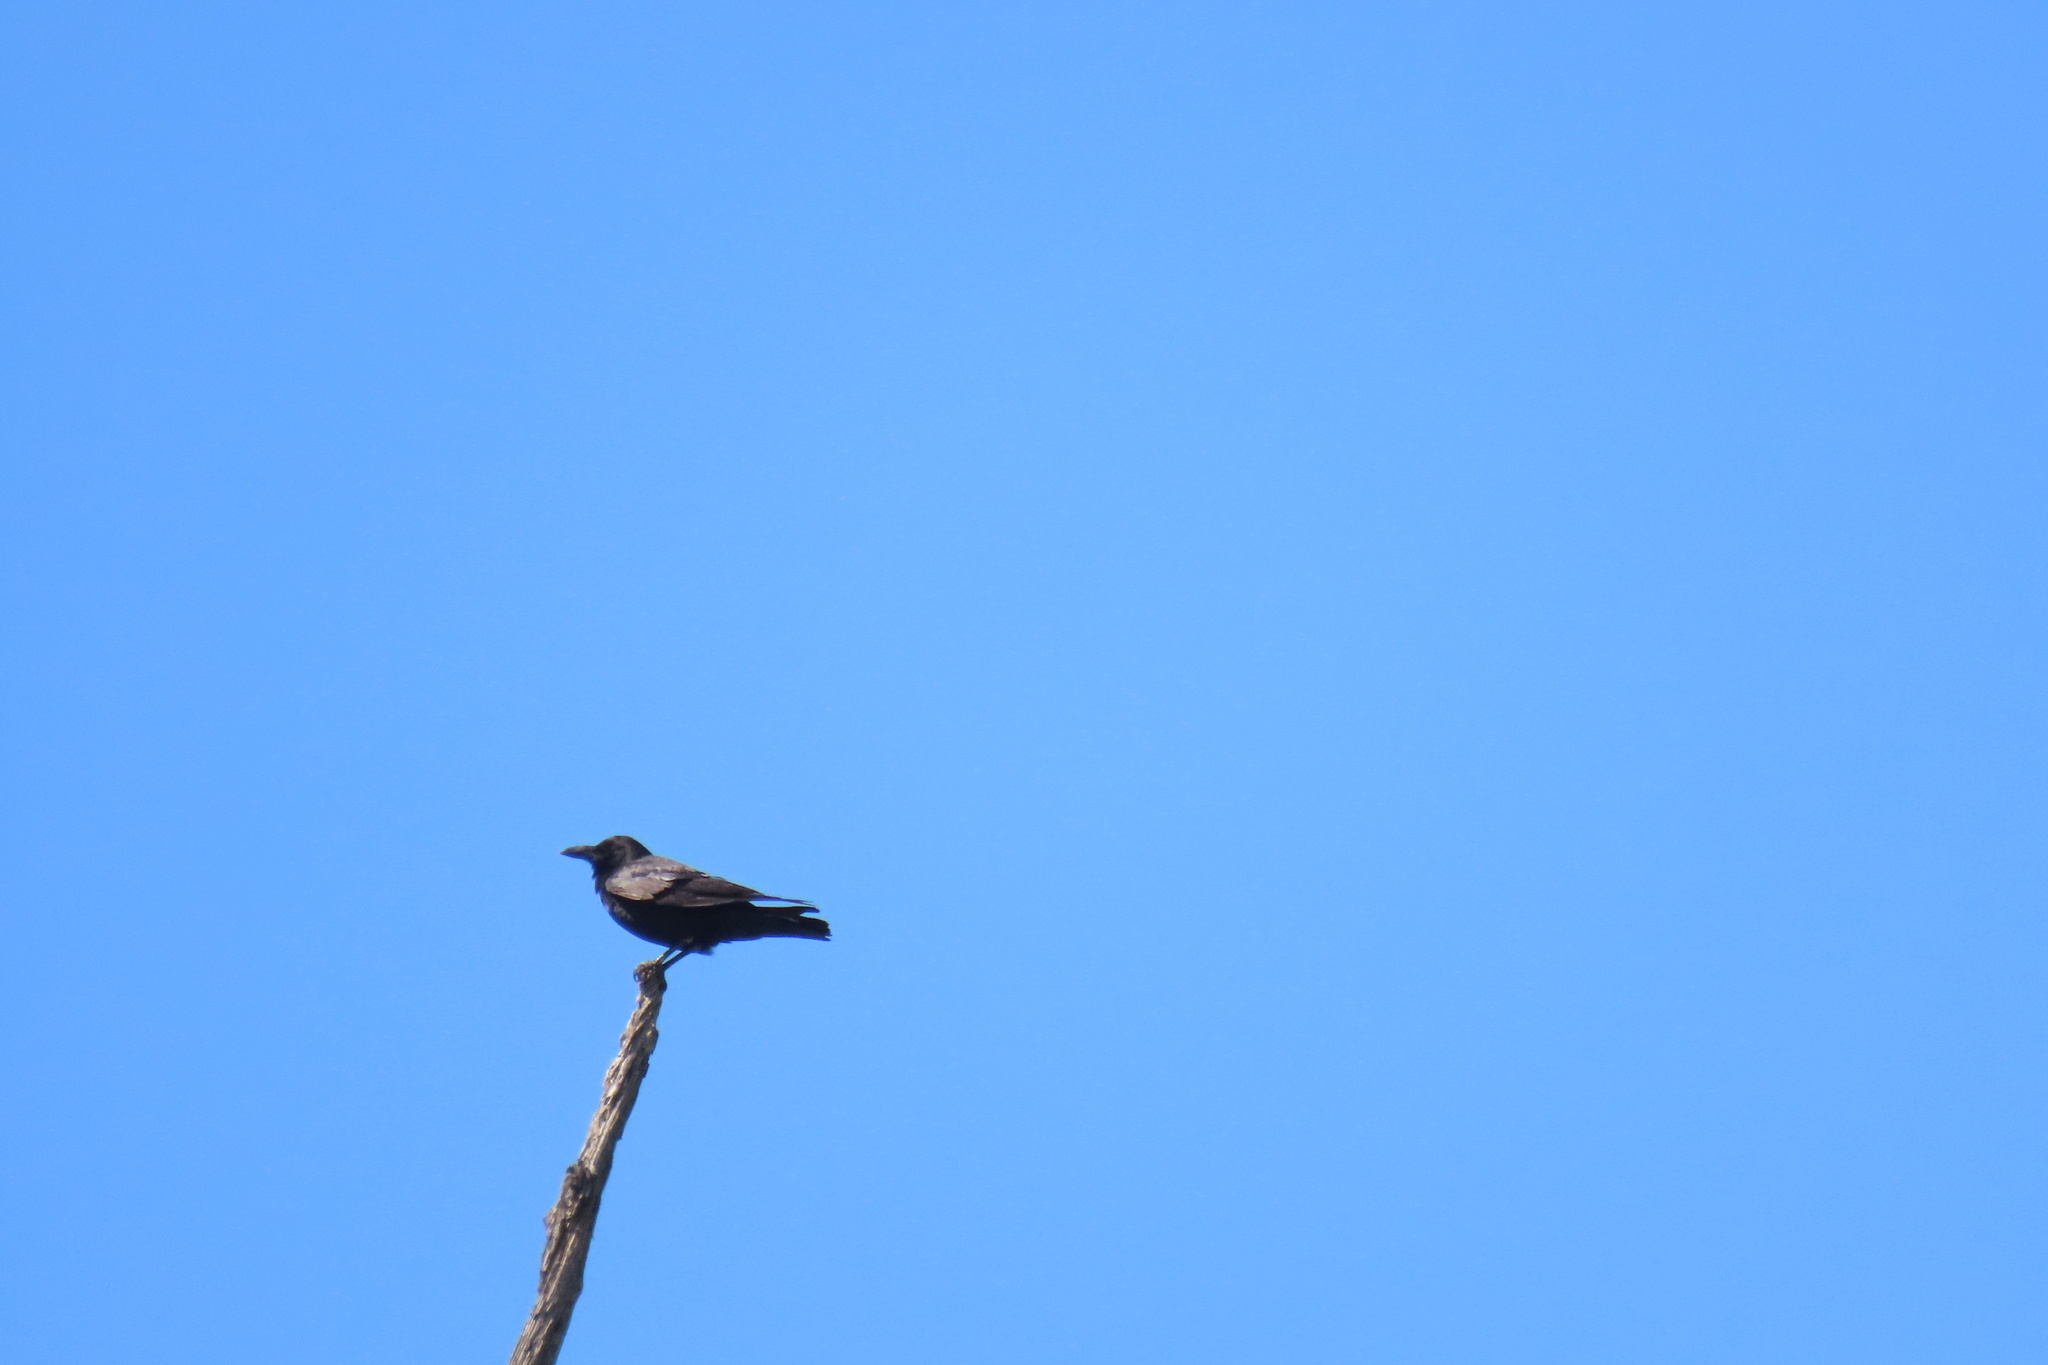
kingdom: Animalia
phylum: Chordata
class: Aves
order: Passeriformes
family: Corvidae
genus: Corvus
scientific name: Corvus brachyrhynchos
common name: American crow
